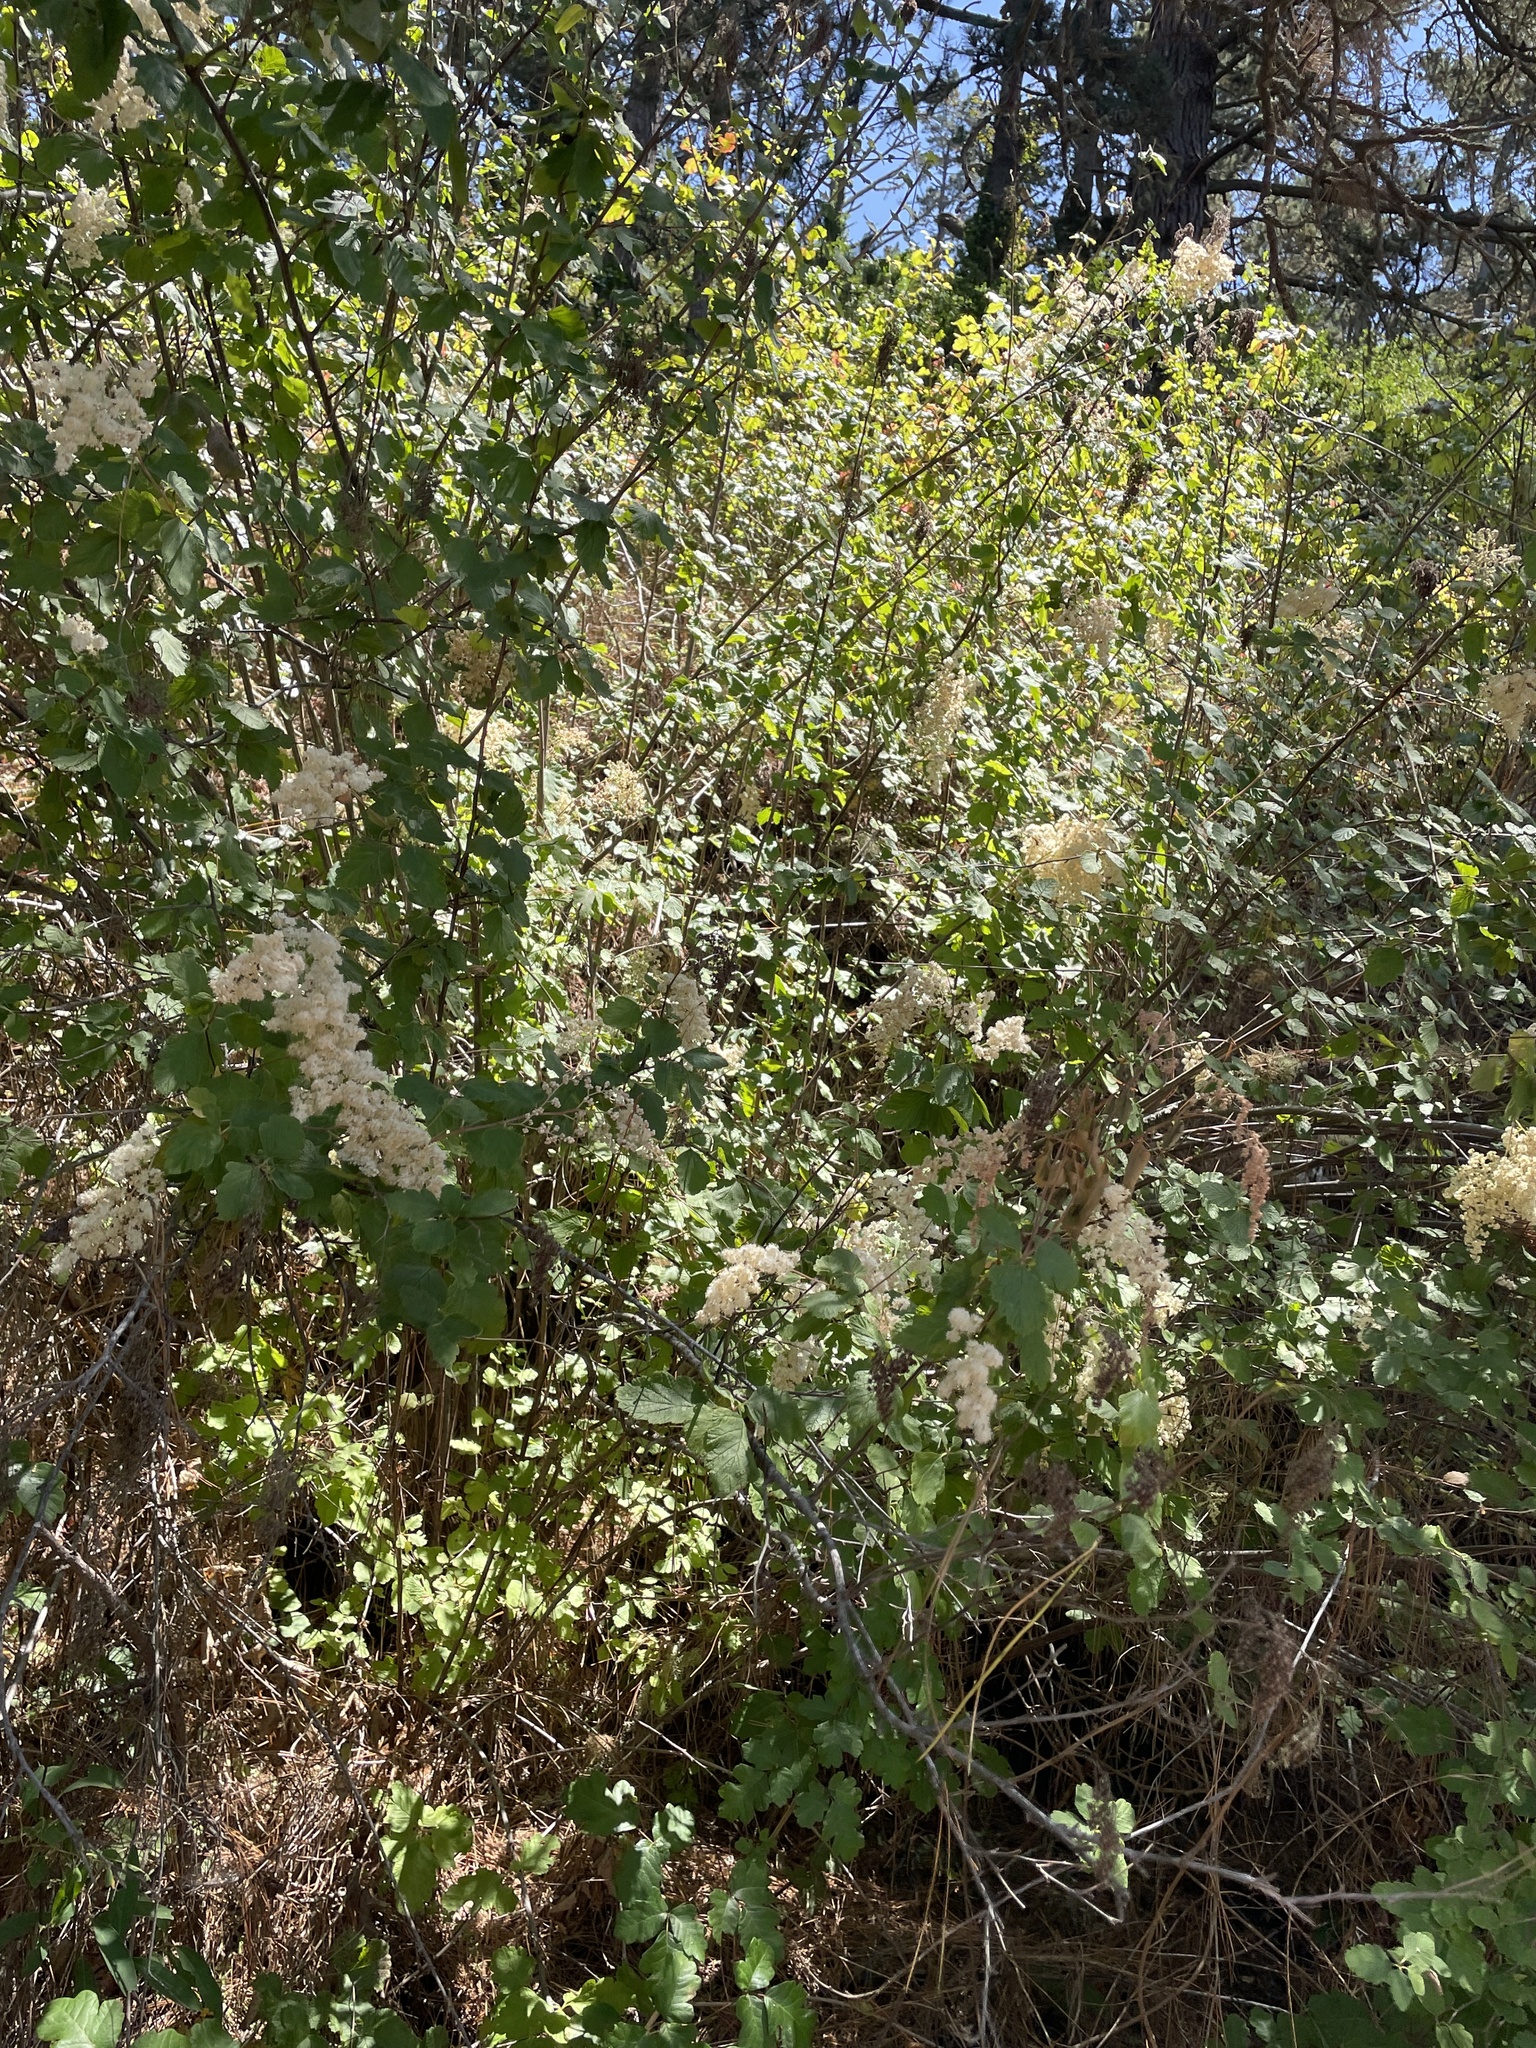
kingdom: Plantae
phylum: Tracheophyta
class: Magnoliopsida
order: Rosales
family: Rosaceae
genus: Holodiscus
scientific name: Holodiscus discolor
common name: Oceanspray
